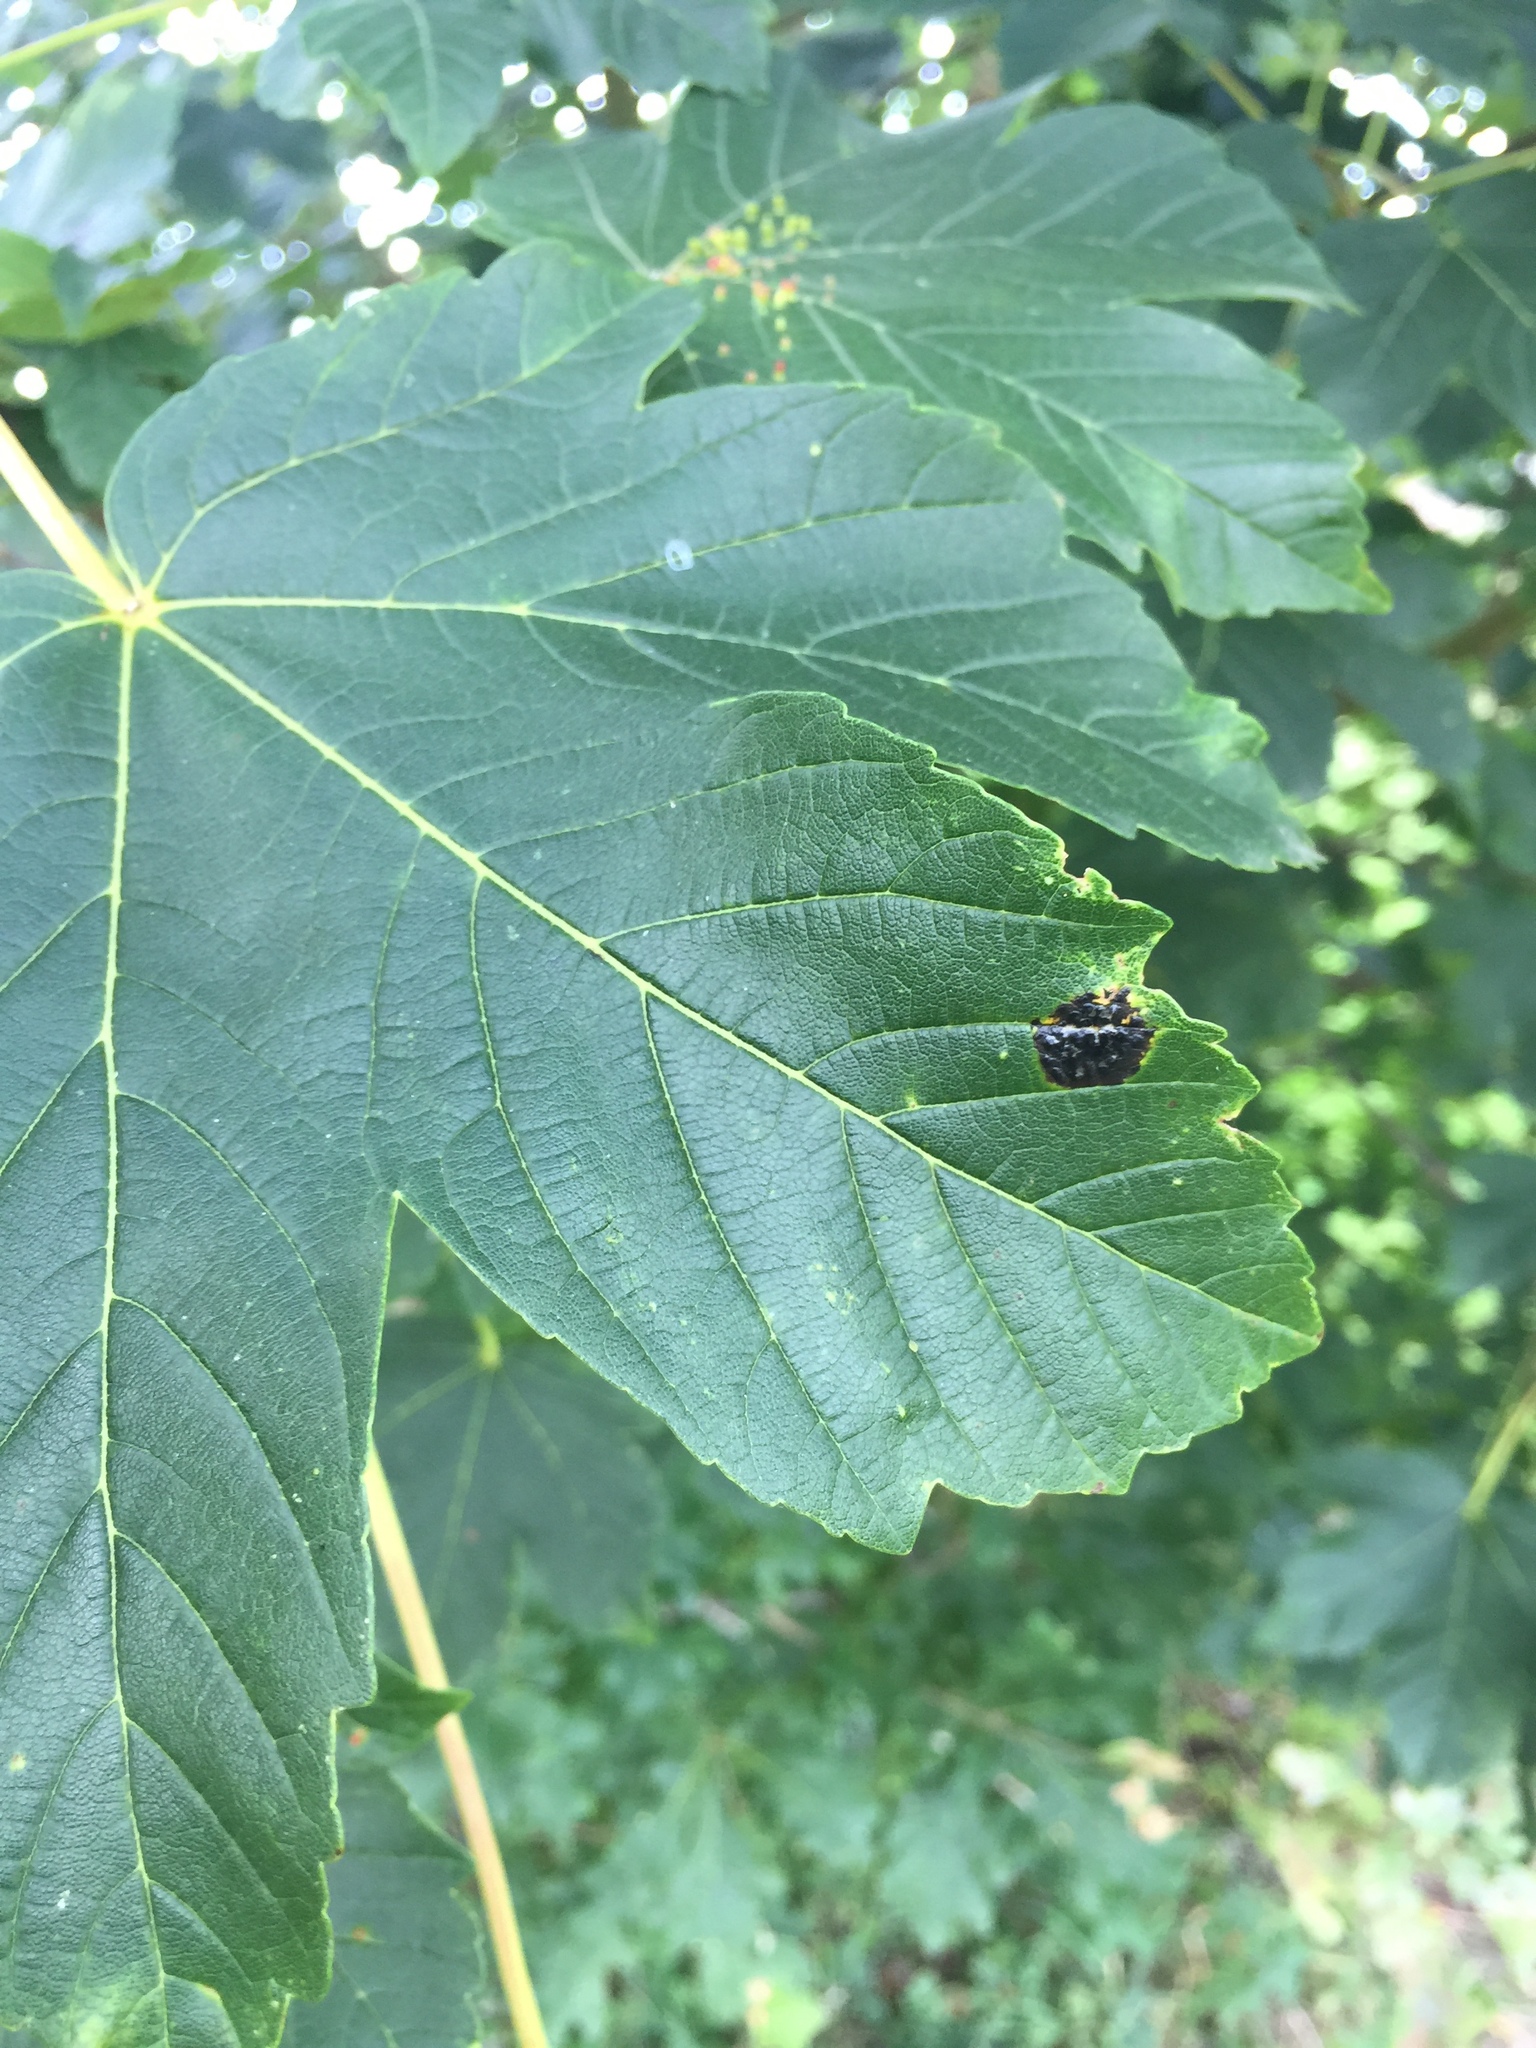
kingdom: Fungi
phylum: Ascomycota
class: Leotiomycetes
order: Rhytismatales
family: Rhytismataceae
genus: Rhytisma
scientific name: Rhytisma acerinum
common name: European tar spot
